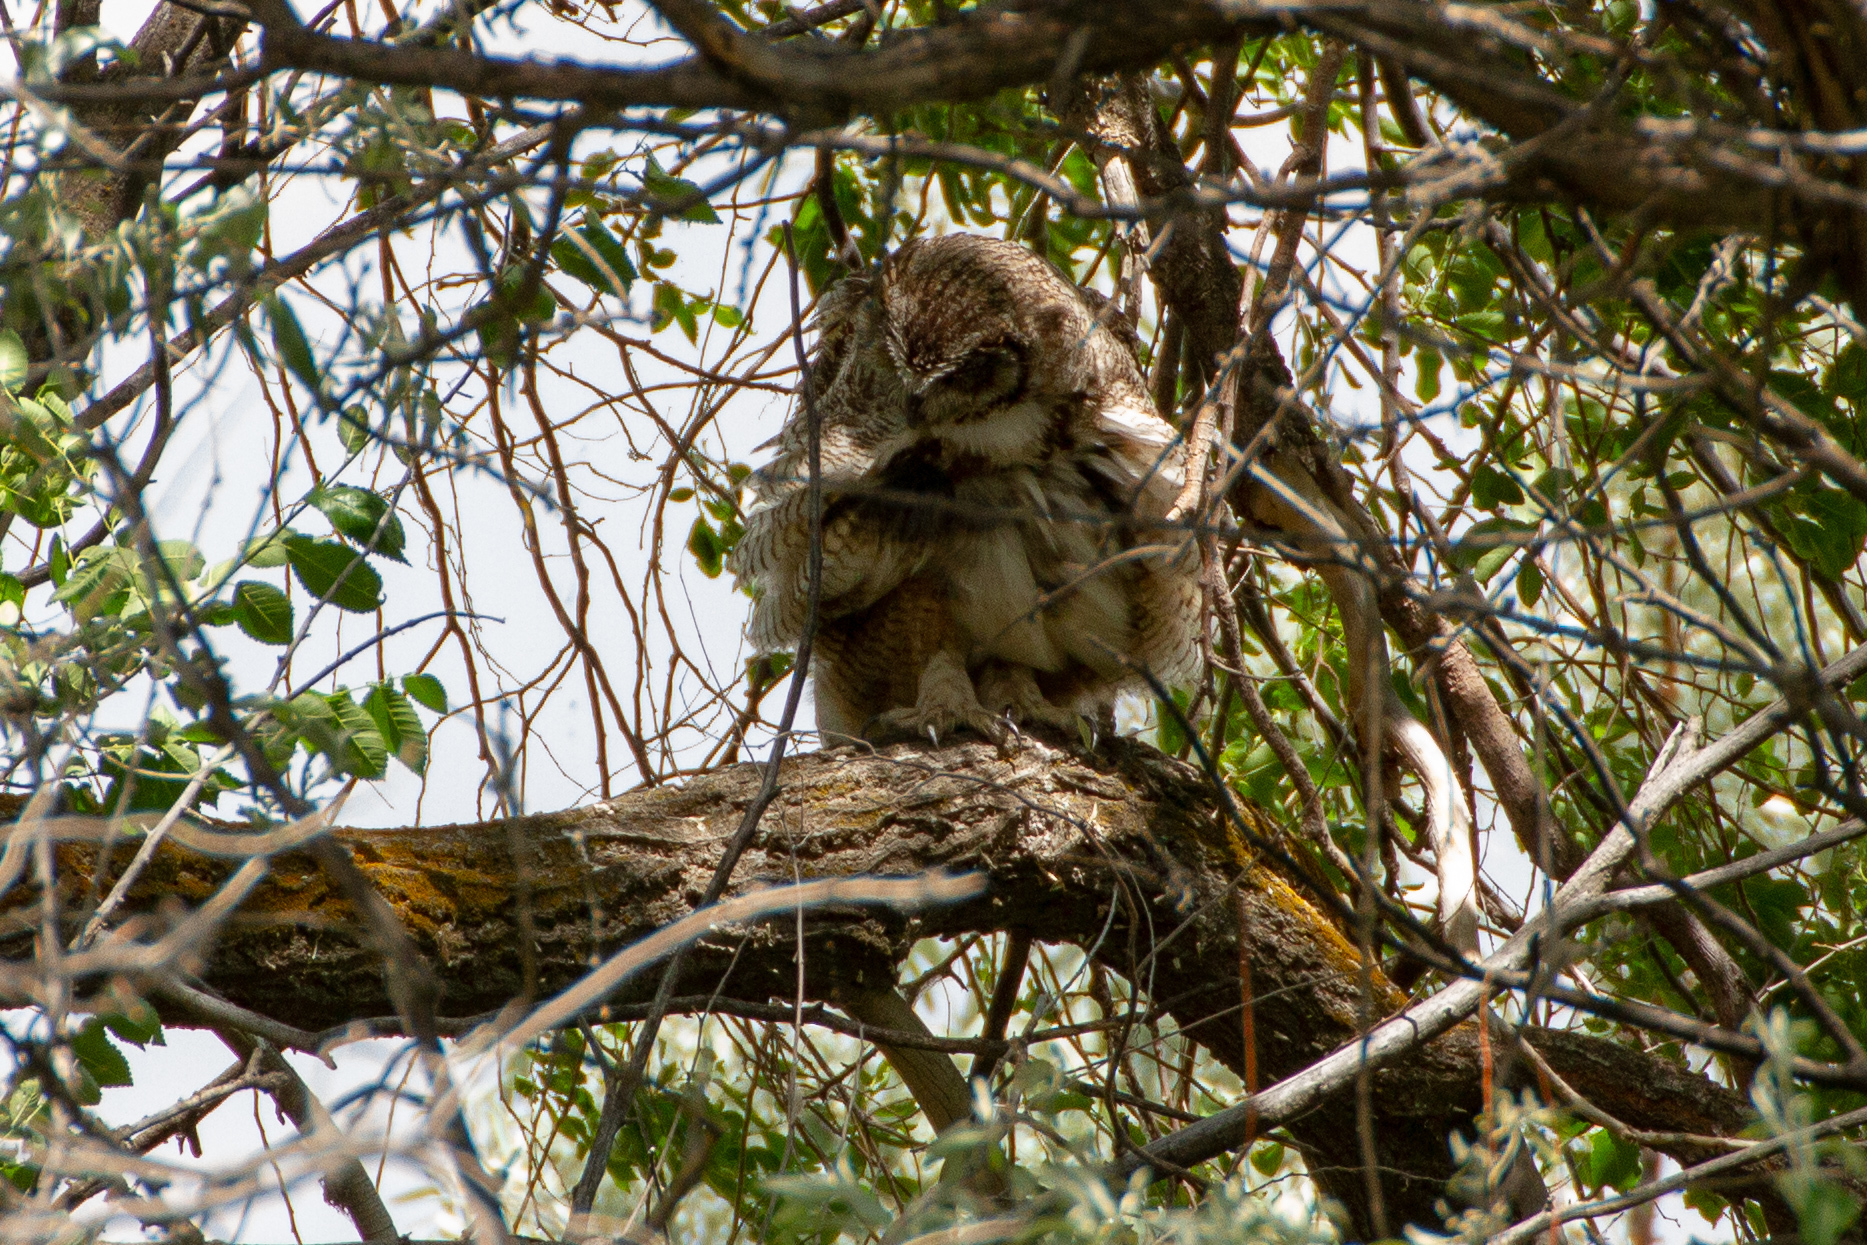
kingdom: Animalia
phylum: Chordata
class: Aves
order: Strigiformes
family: Strigidae
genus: Bubo
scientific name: Bubo virginianus
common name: Great horned owl
